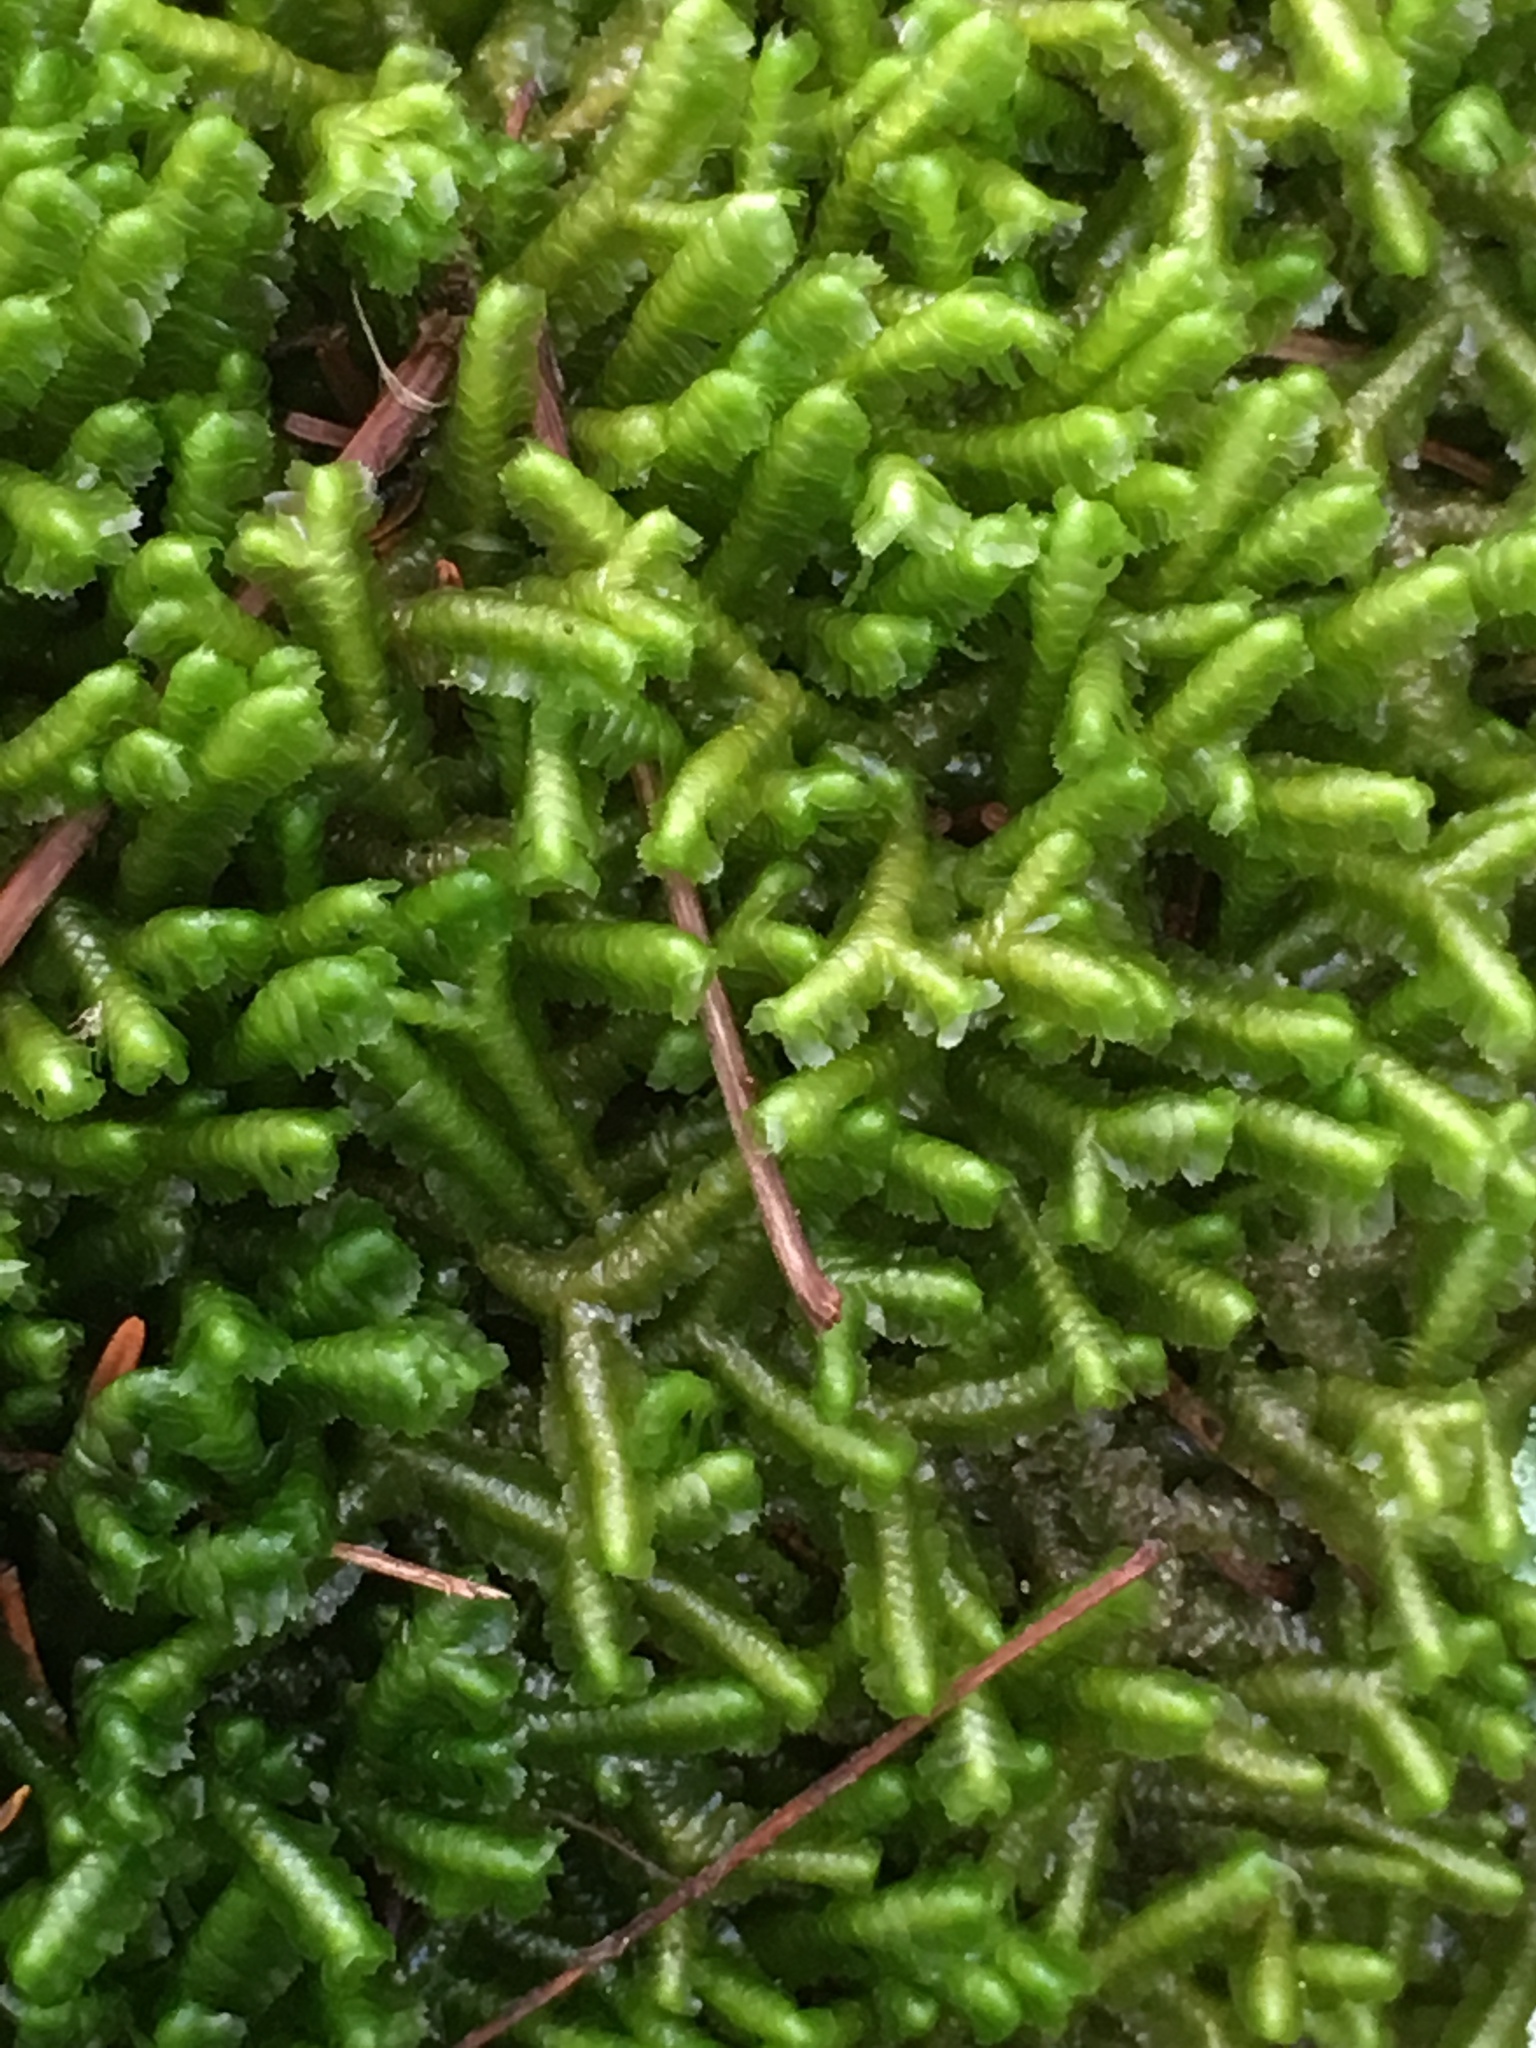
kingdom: Plantae
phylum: Marchantiophyta
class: Jungermanniopsida
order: Jungermanniales
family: Lepidoziaceae
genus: Bazzania
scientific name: Bazzania trilobata
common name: Three-lobed whipwort
